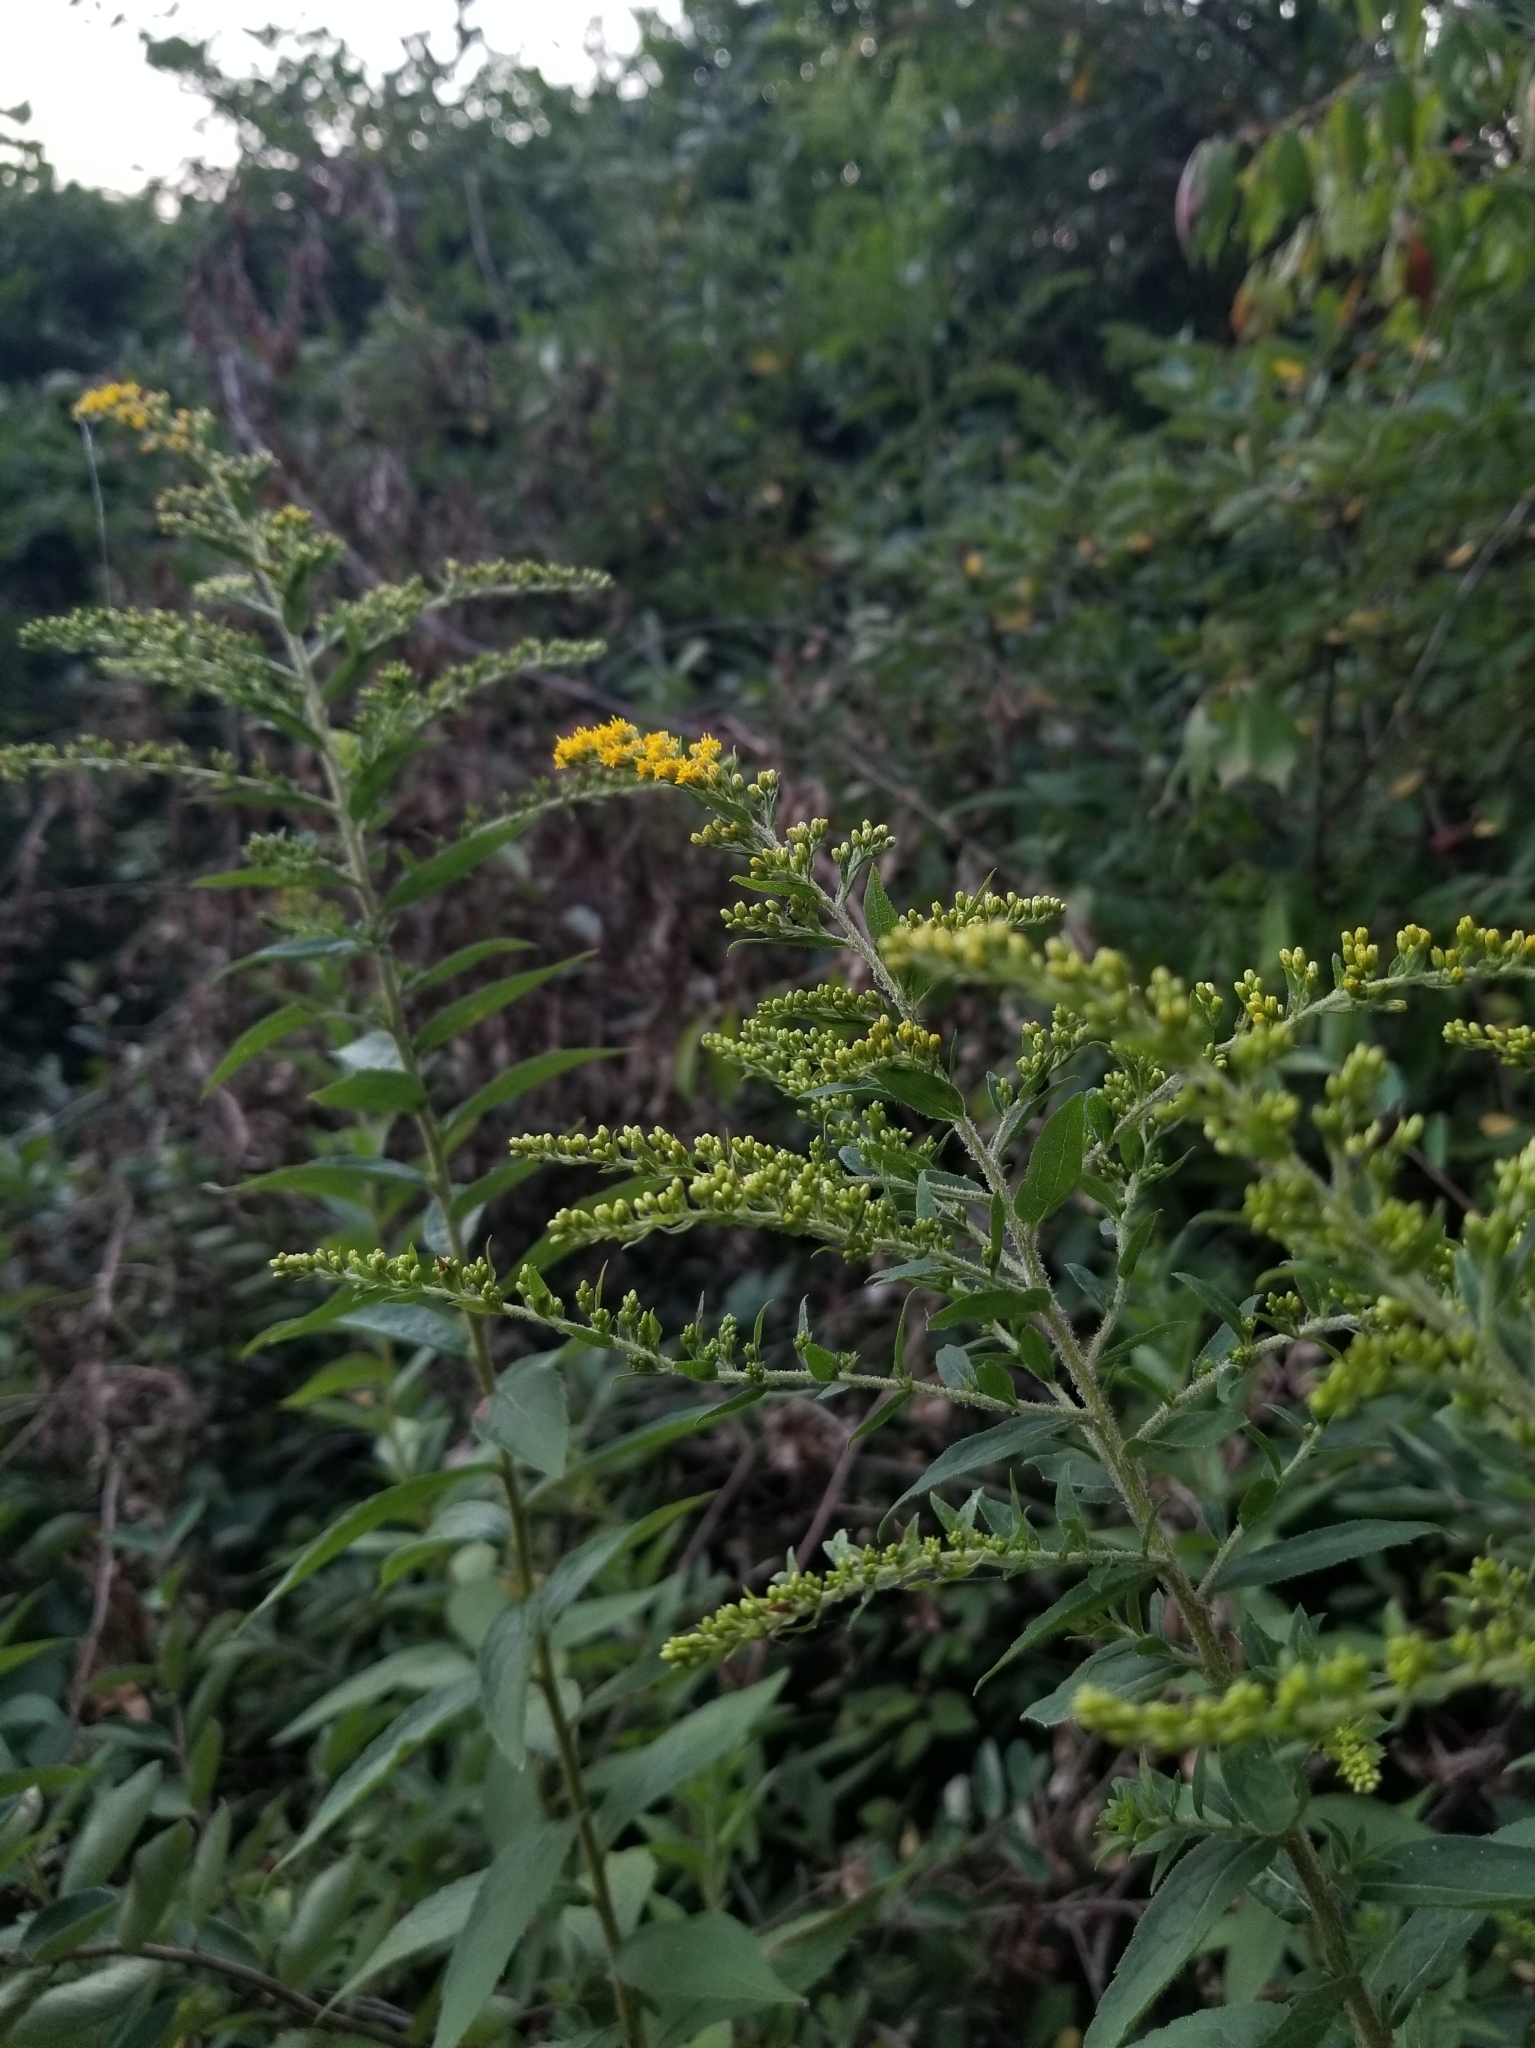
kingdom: Plantae
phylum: Tracheophyta
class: Magnoliopsida
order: Asterales
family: Asteraceae
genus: Solidago
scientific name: Solidago rugosa
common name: Rough-stemmed goldenrod
